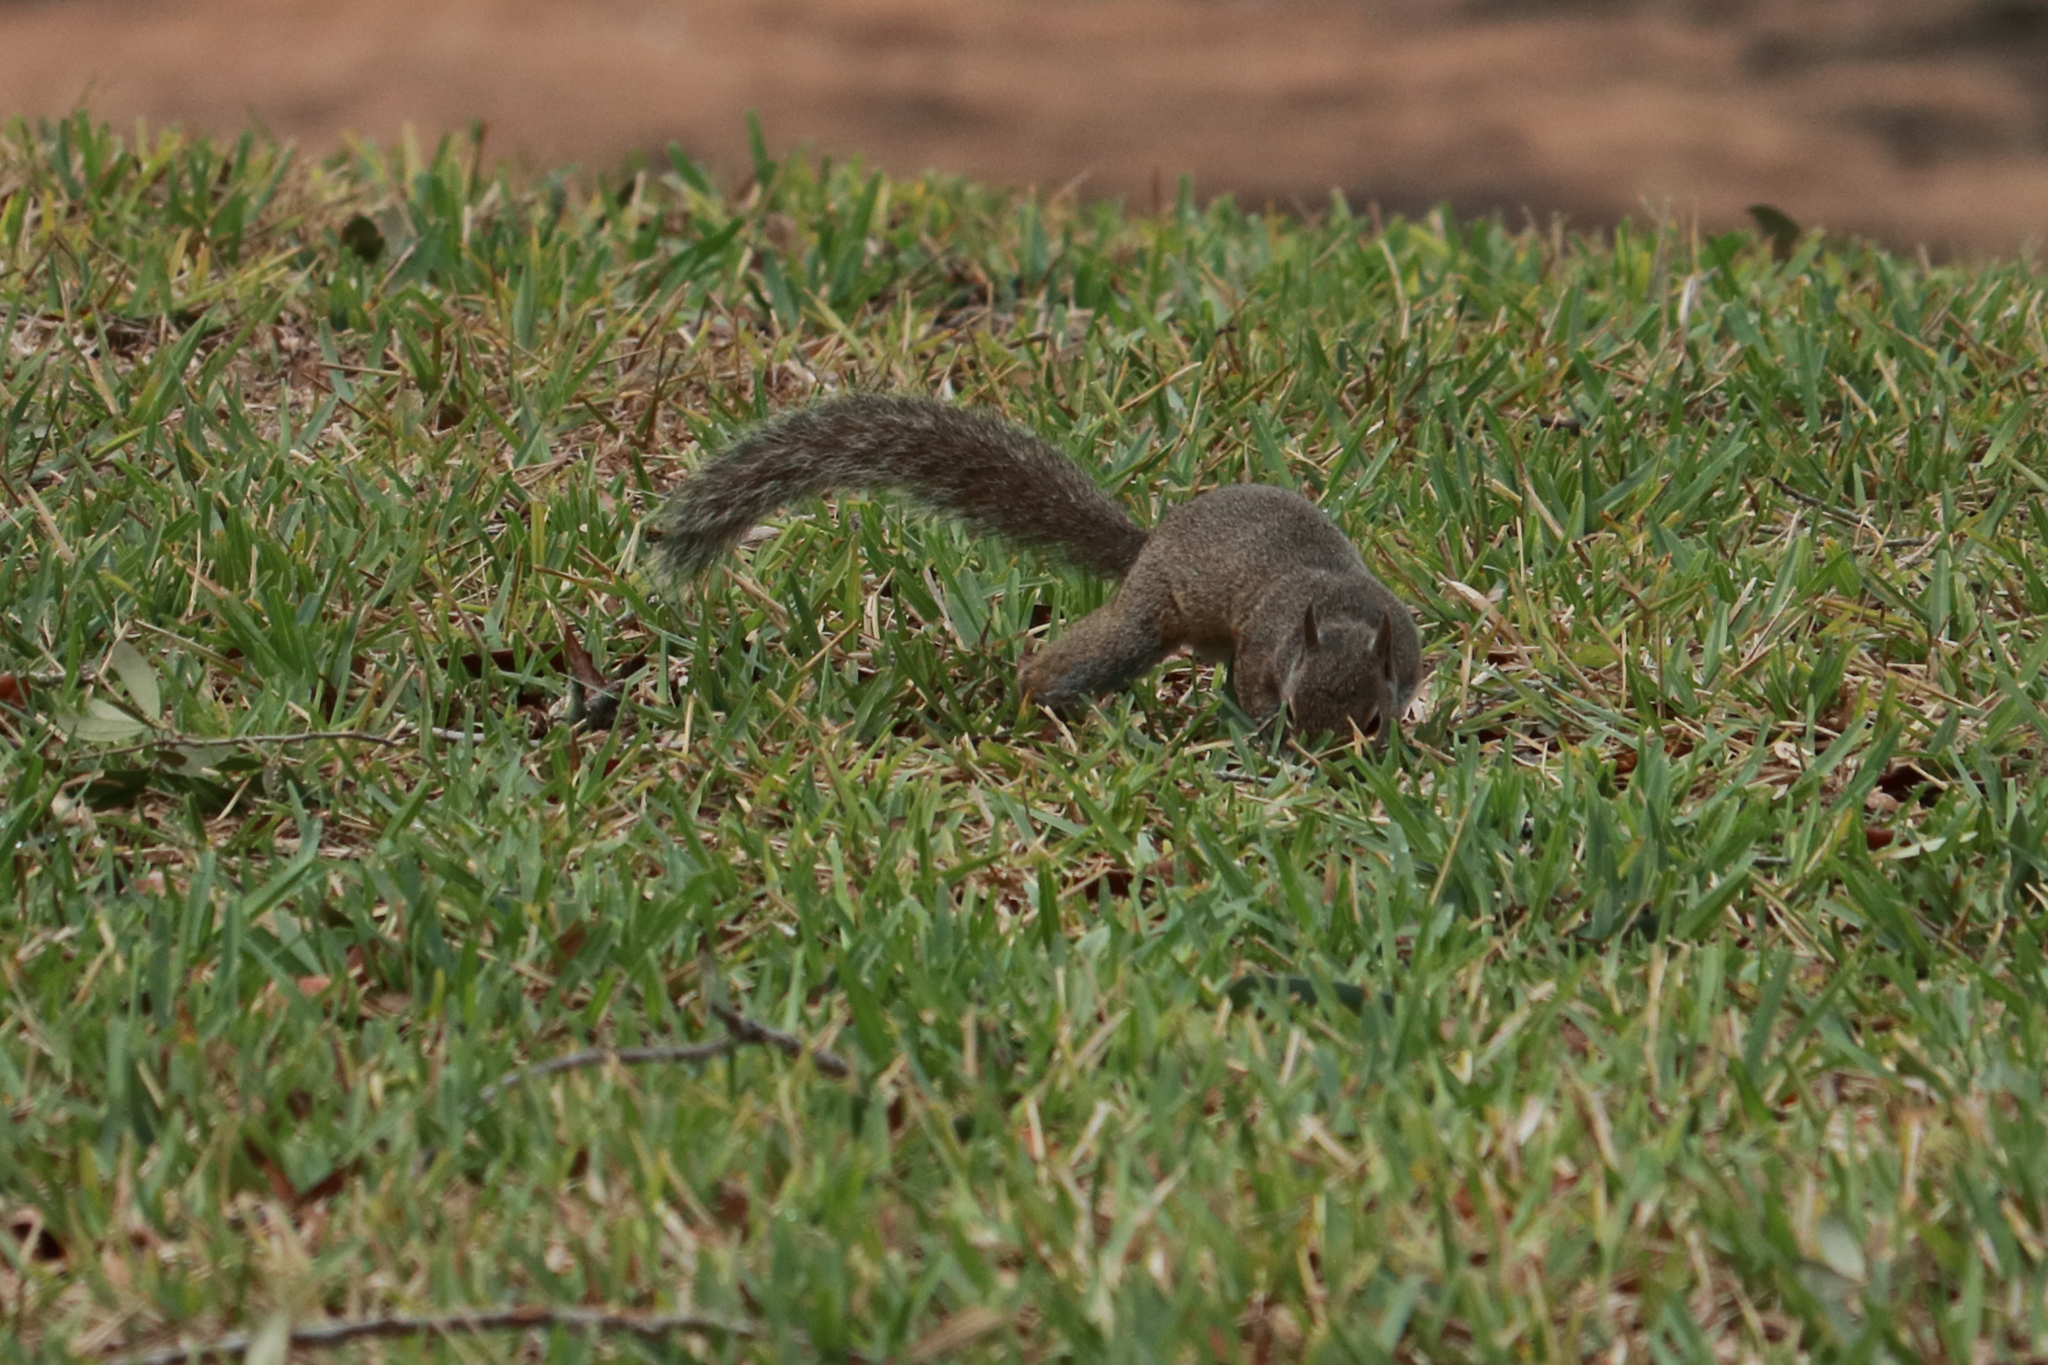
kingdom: Animalia
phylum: Chordata
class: Mammalia
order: Rodentia
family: Sciuridae
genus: Sciurus
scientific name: Sciurus carolinensis
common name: Eastern gray squirrel
